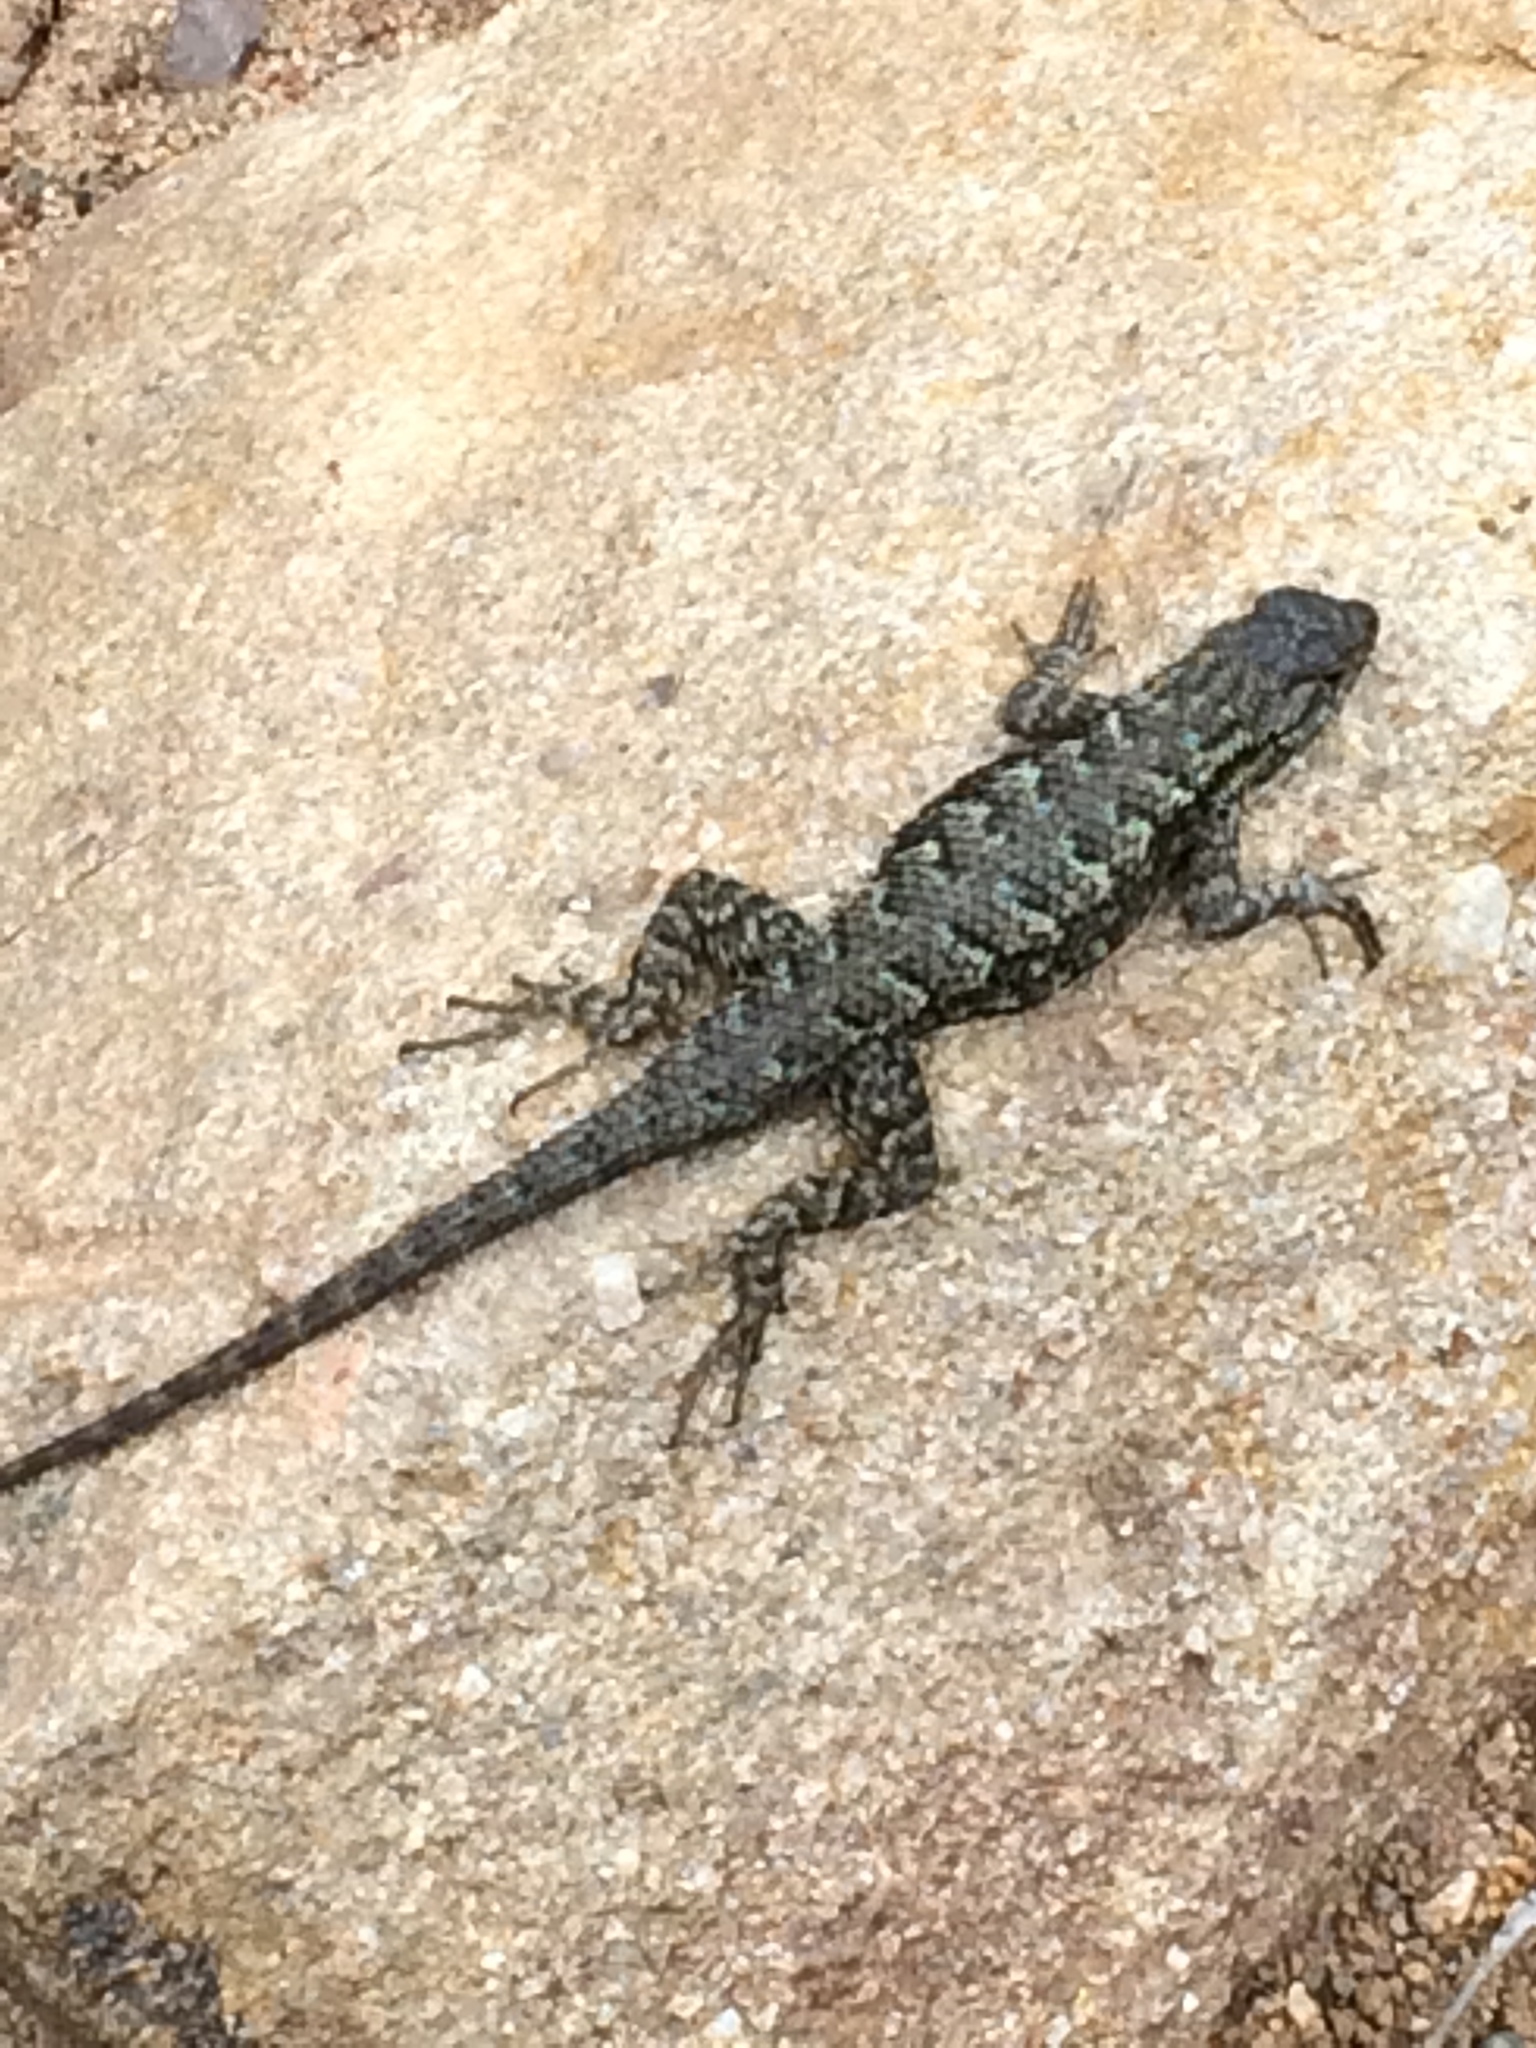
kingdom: Animalia
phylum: Chordata
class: Squamata
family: Phrynosomatidae
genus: Sceloporus
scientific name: Sceloporus occidentalis
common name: Western fence lizard
